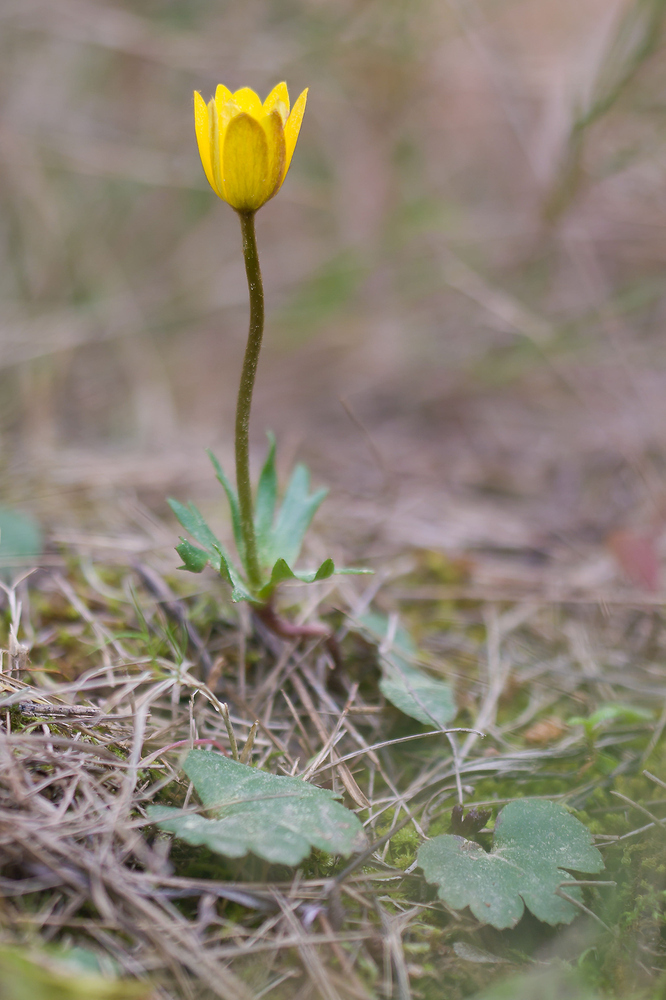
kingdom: Plantae
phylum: Tracheophyta
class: Magnoliopsida
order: Ranunculales
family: Ranunculaceae
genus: Anemone
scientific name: Anemone palmata
